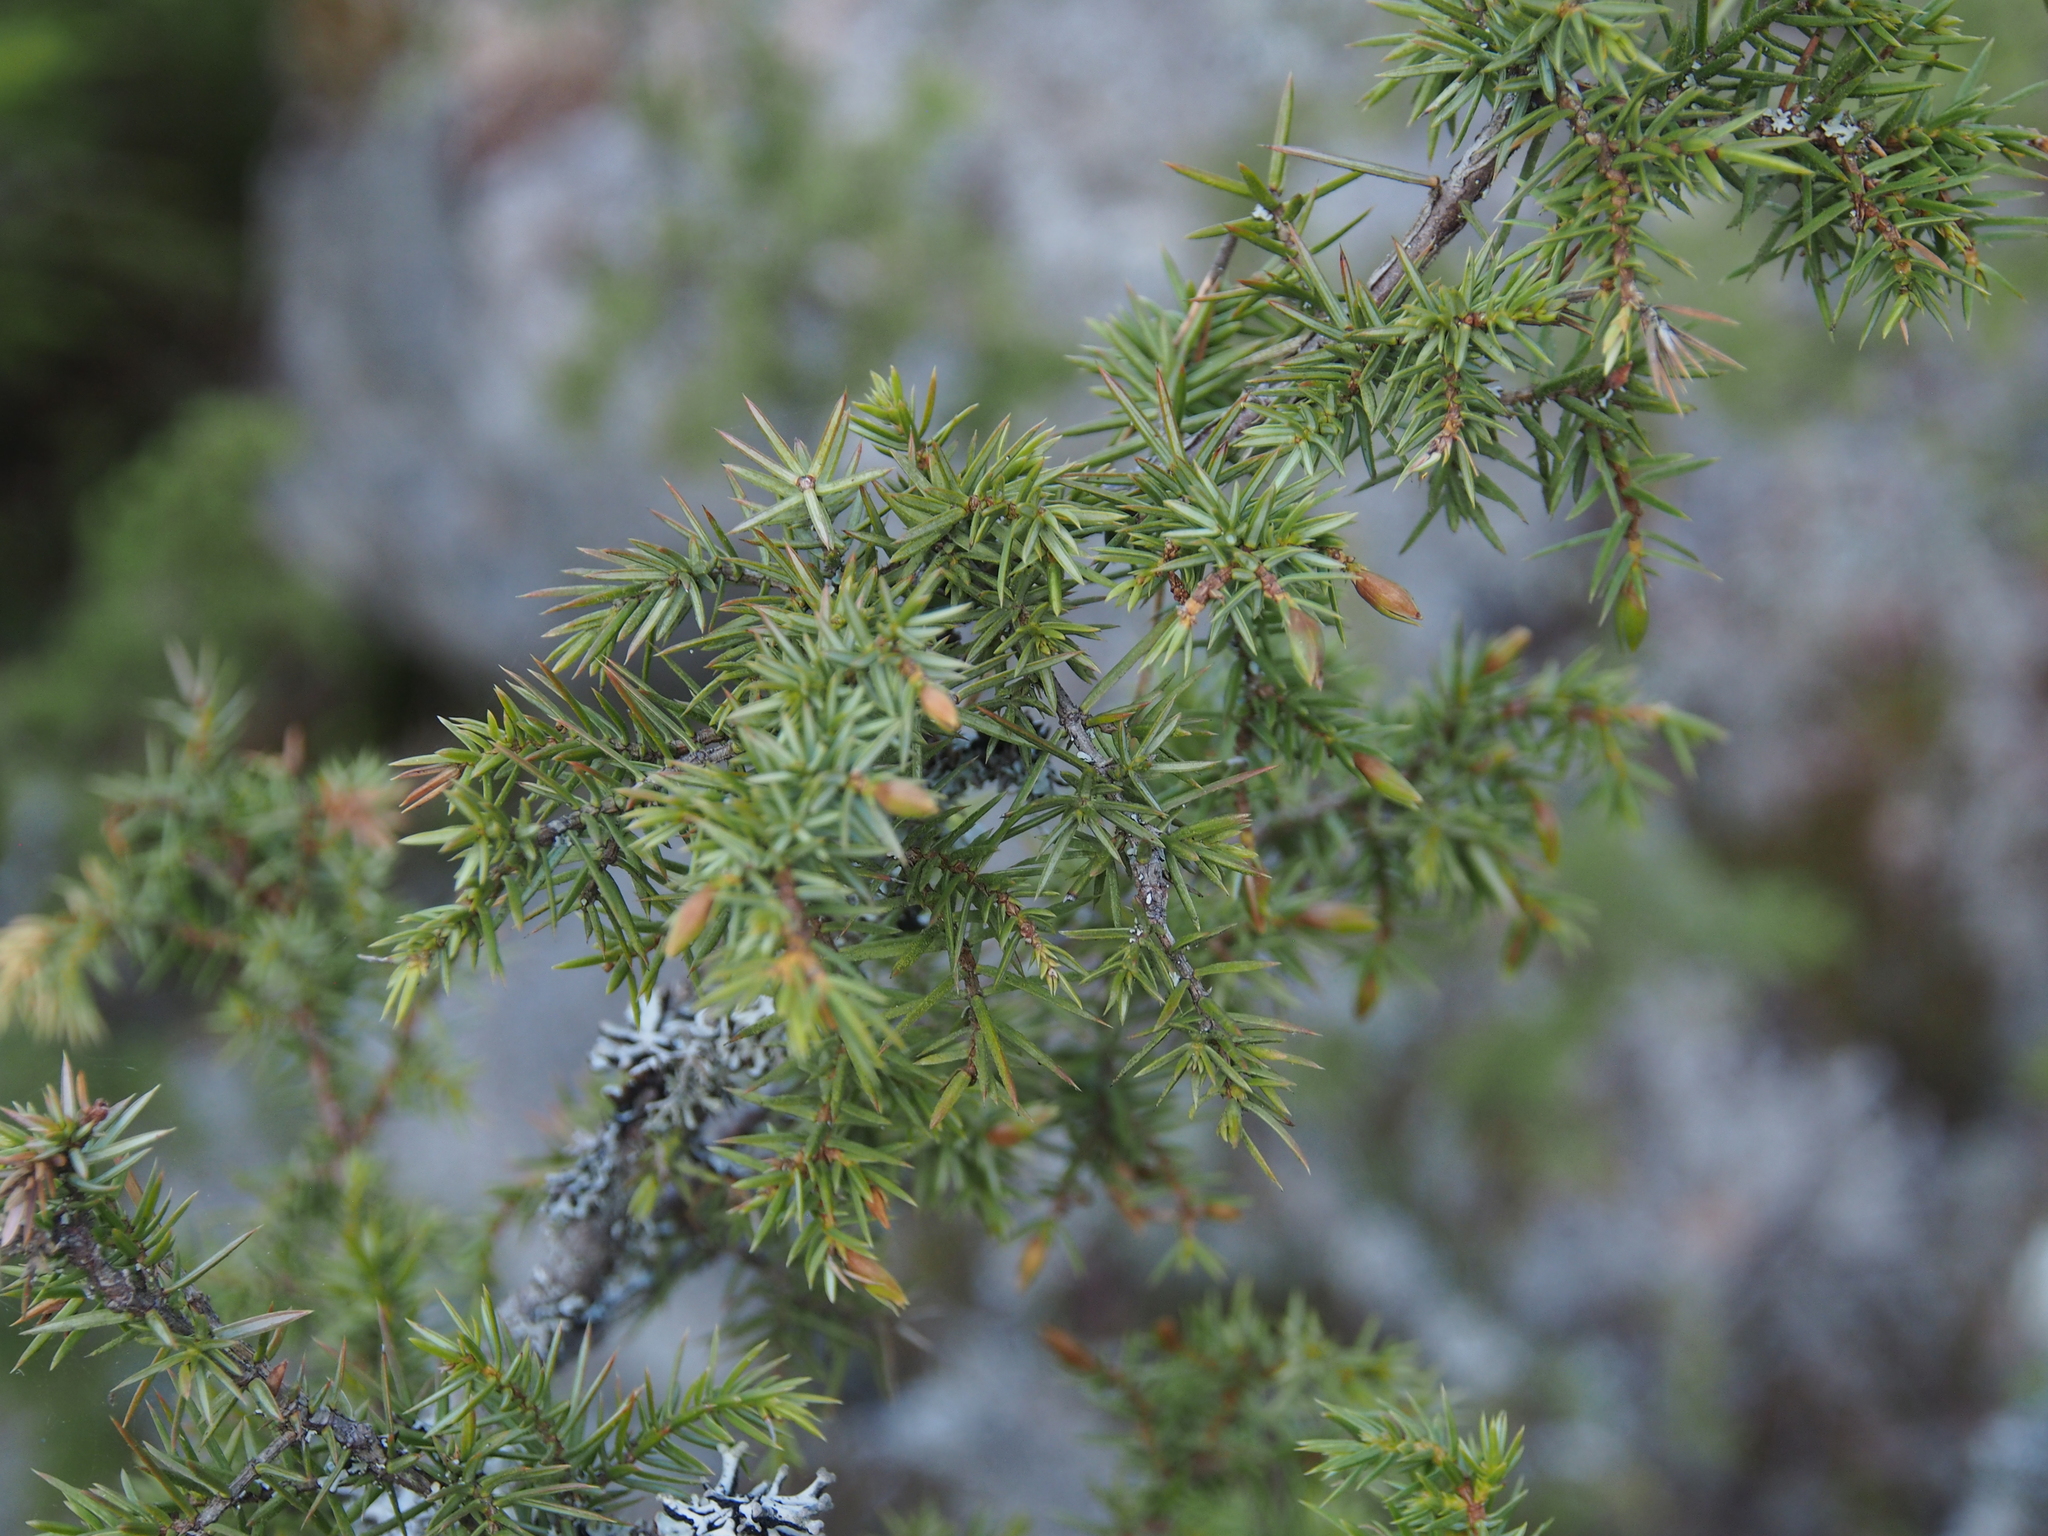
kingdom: Animalia
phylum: Arthropoda
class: Insecta
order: Diptera
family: Cecidomyiidae
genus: Oligotrophus
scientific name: Oligotrophus juniperinus
